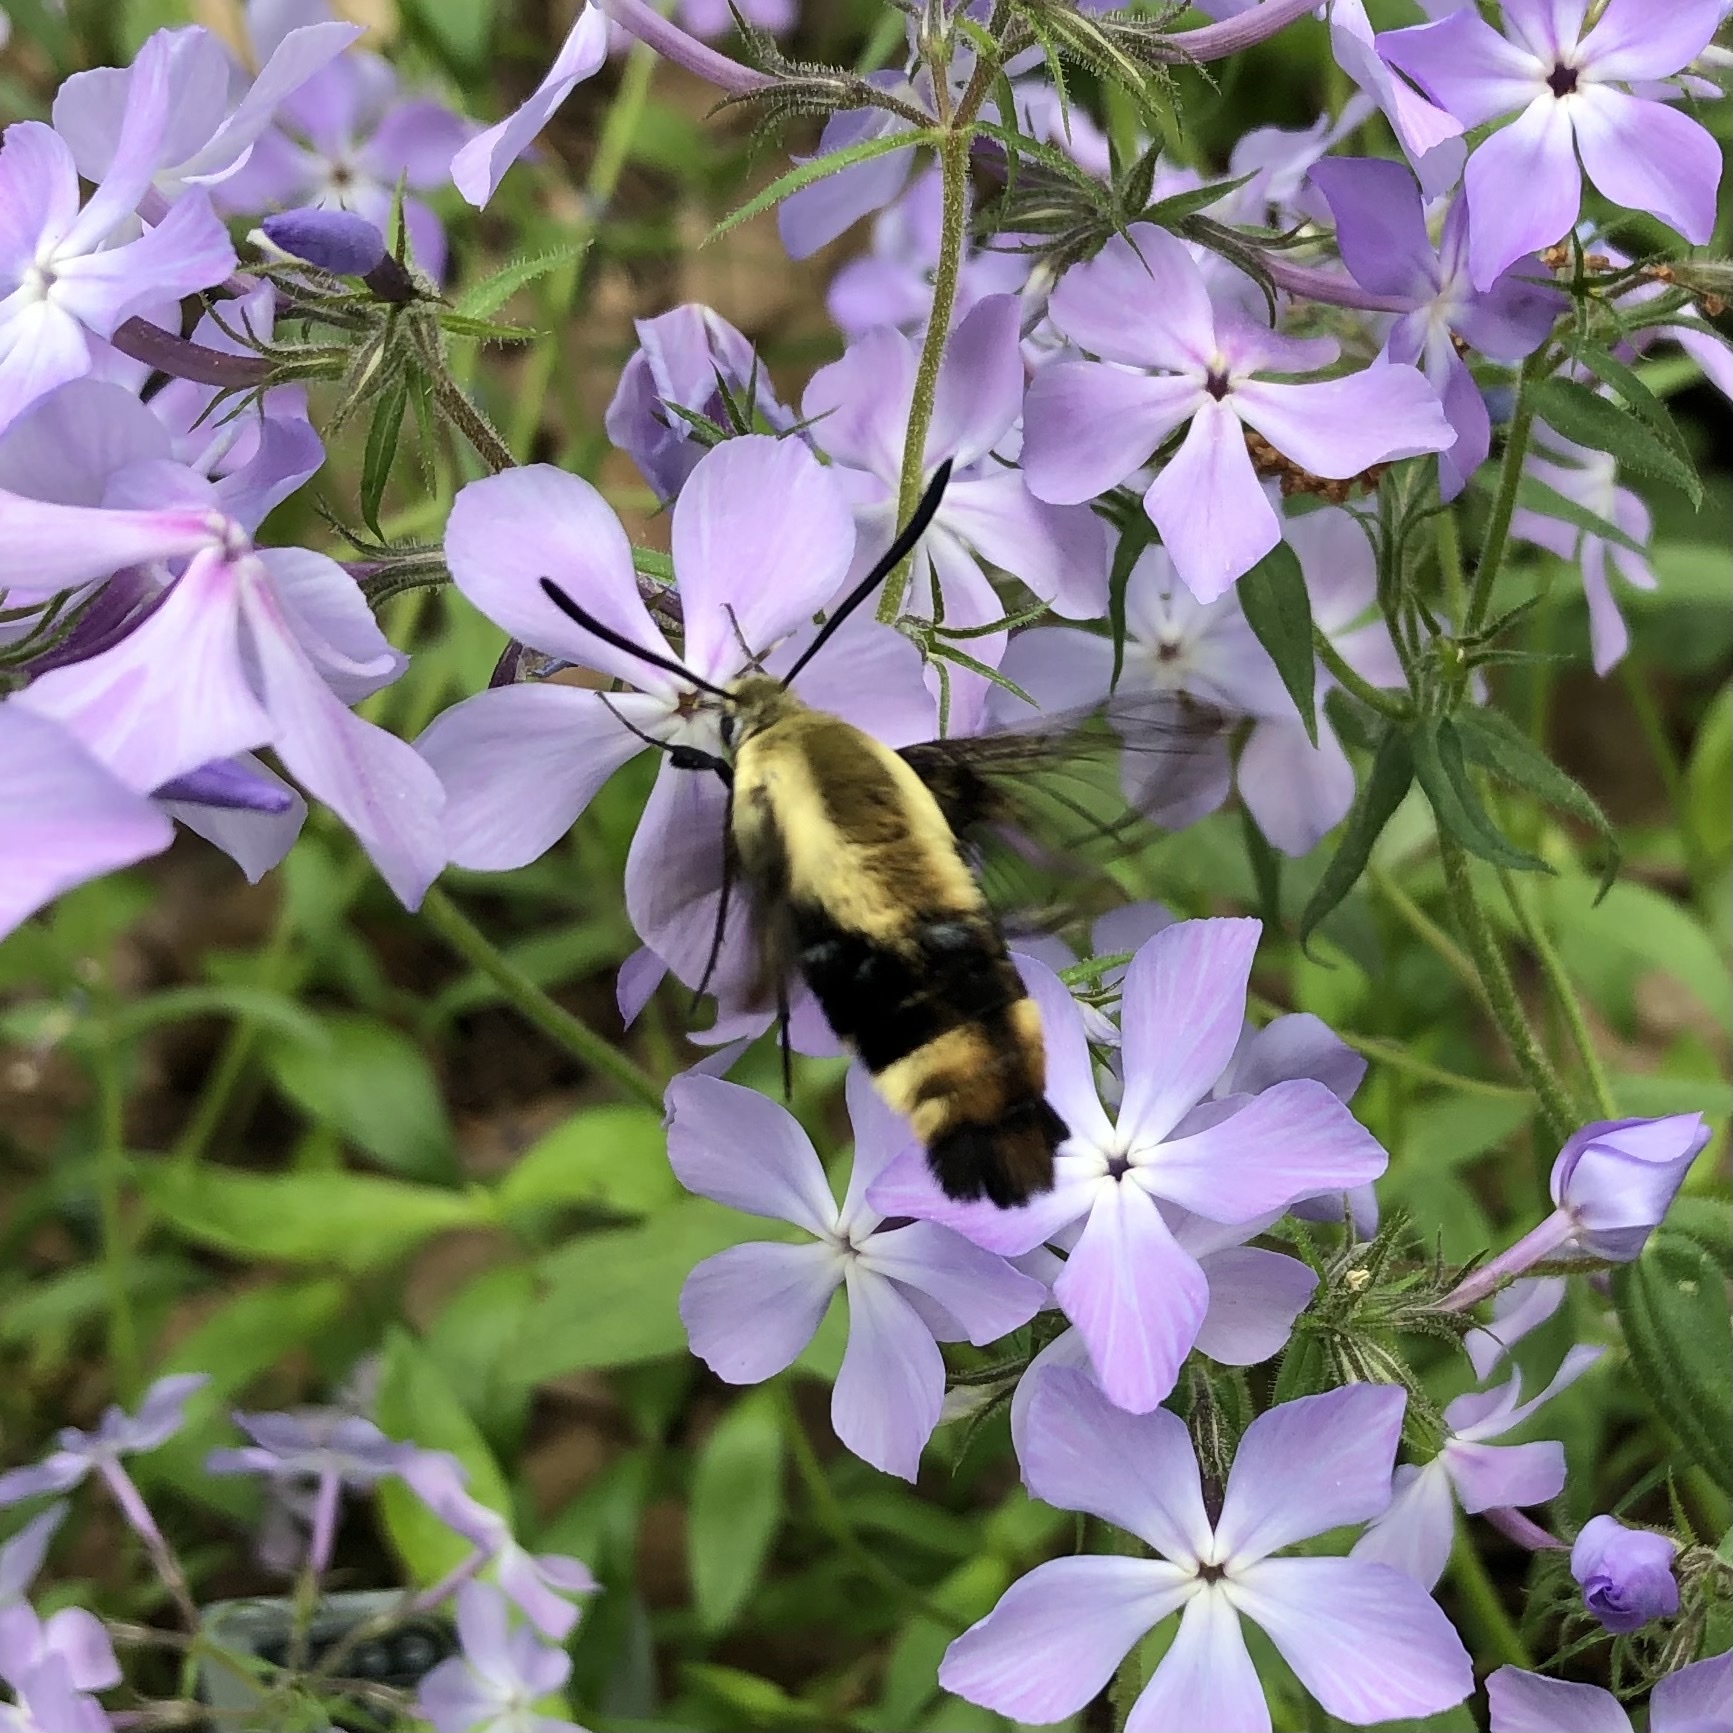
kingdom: Animalia
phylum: Arthropoda
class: Insecta
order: Lepidoptera
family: Sphingidae
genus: Hemaris
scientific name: Hemaris diffinis
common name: Bumblebee moth
